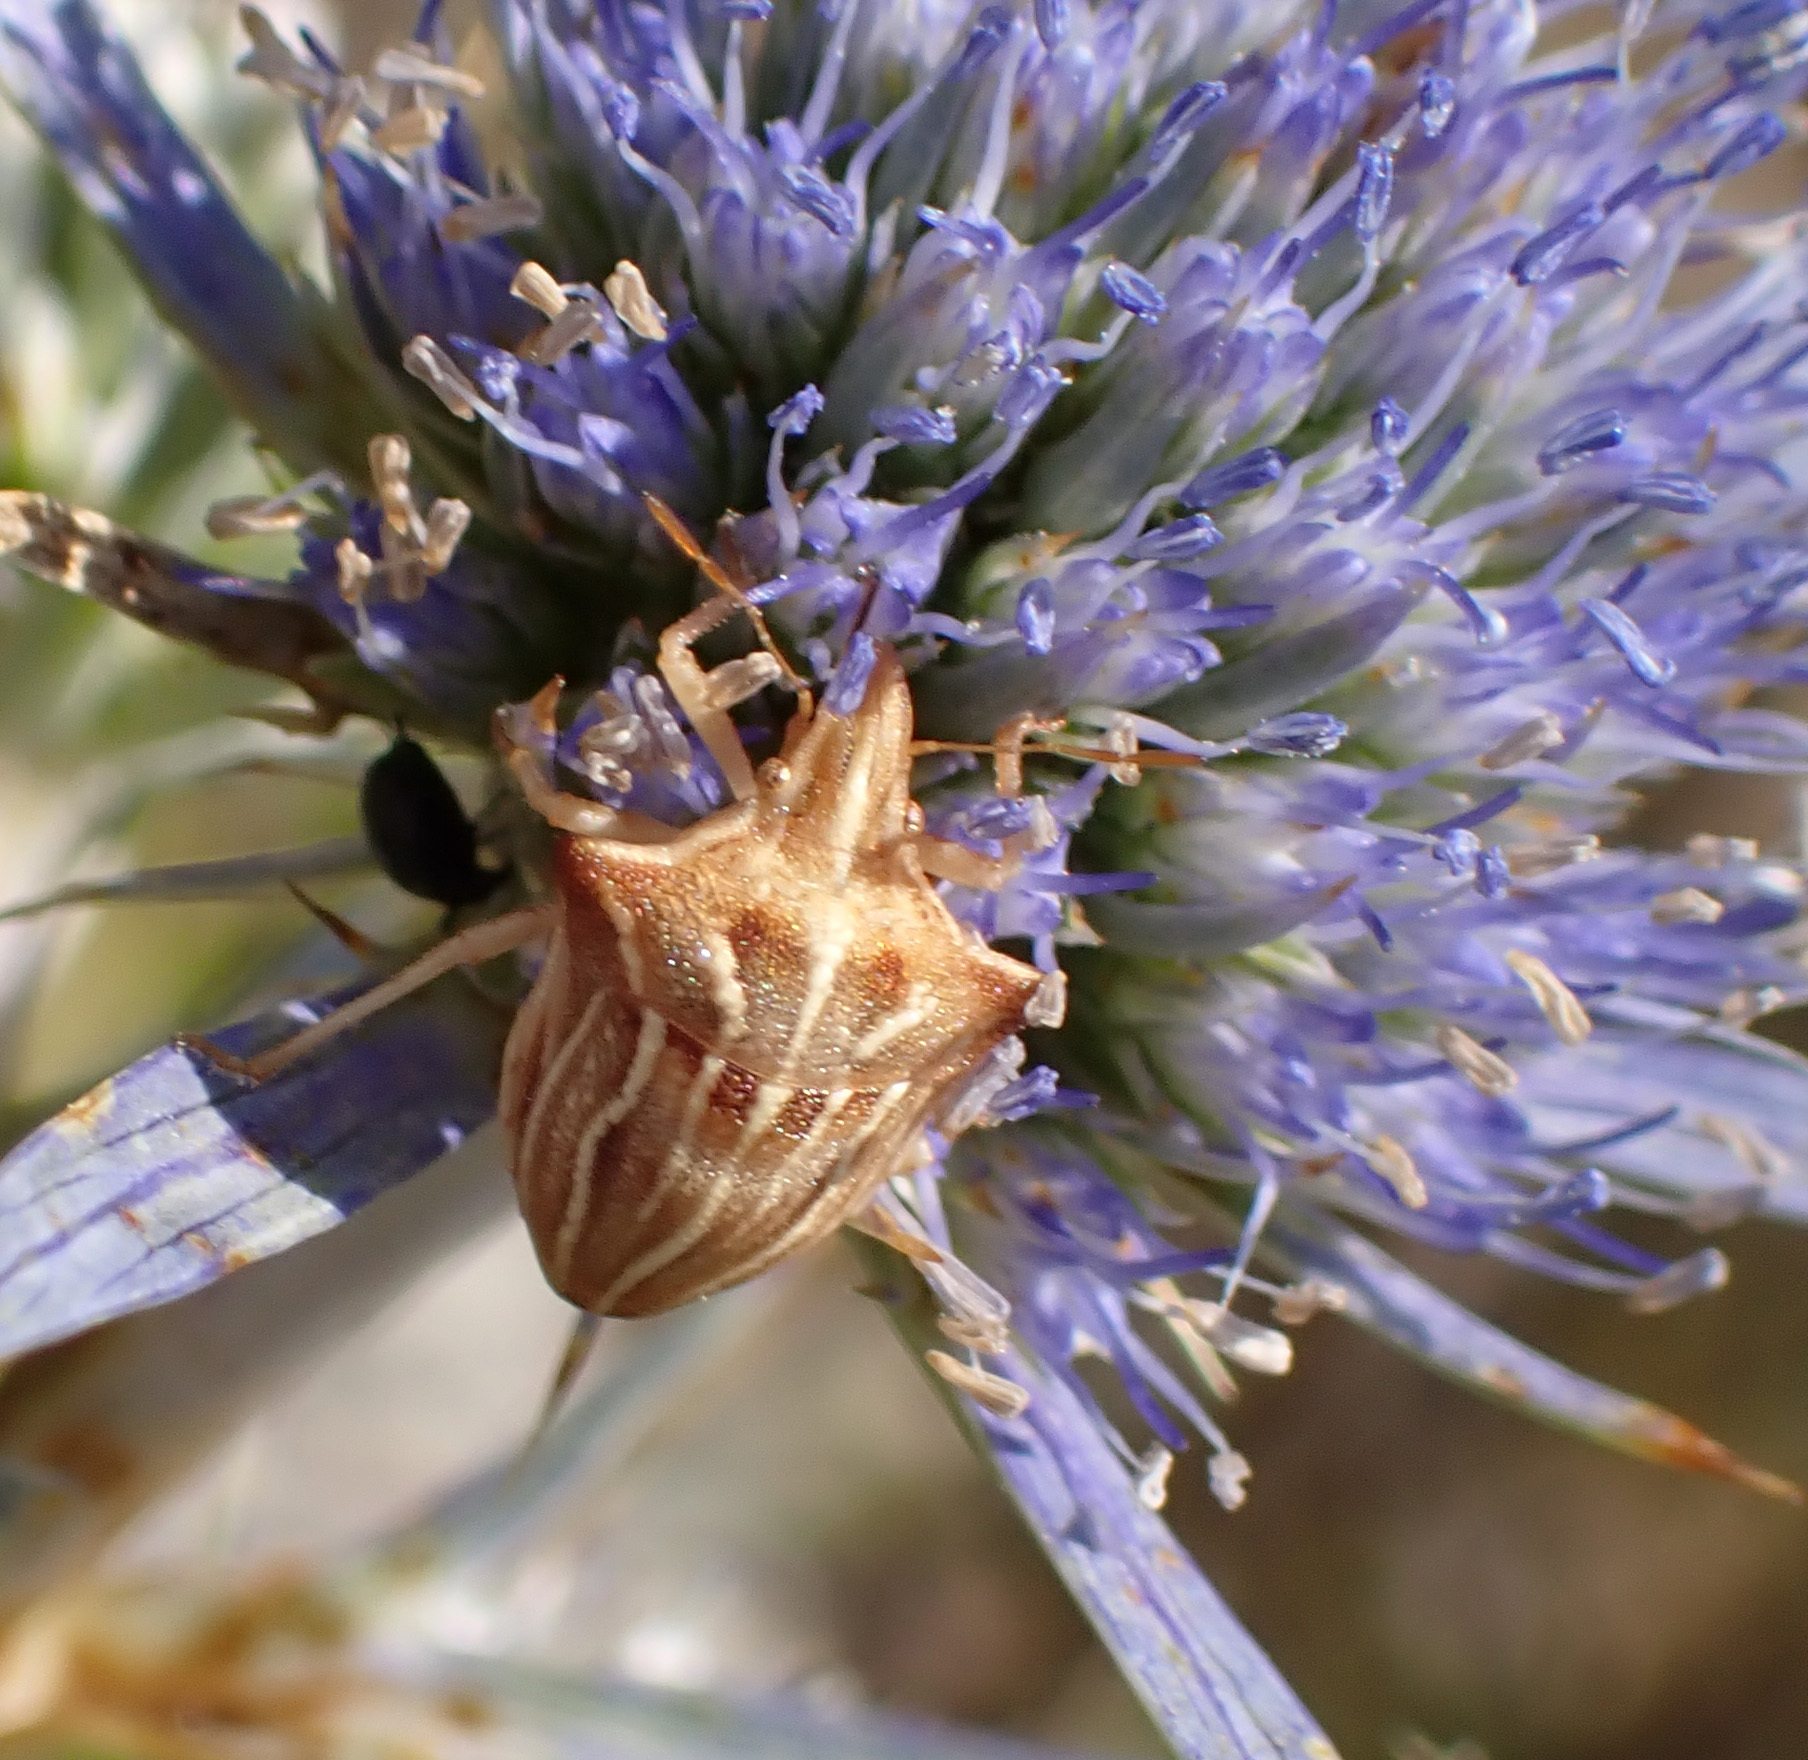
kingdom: Animalia
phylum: Arthropoda
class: Insecta
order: Hemiptera
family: Pentatomidae
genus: Ancyrosoma
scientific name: Ancyrosoma leucogrammes
